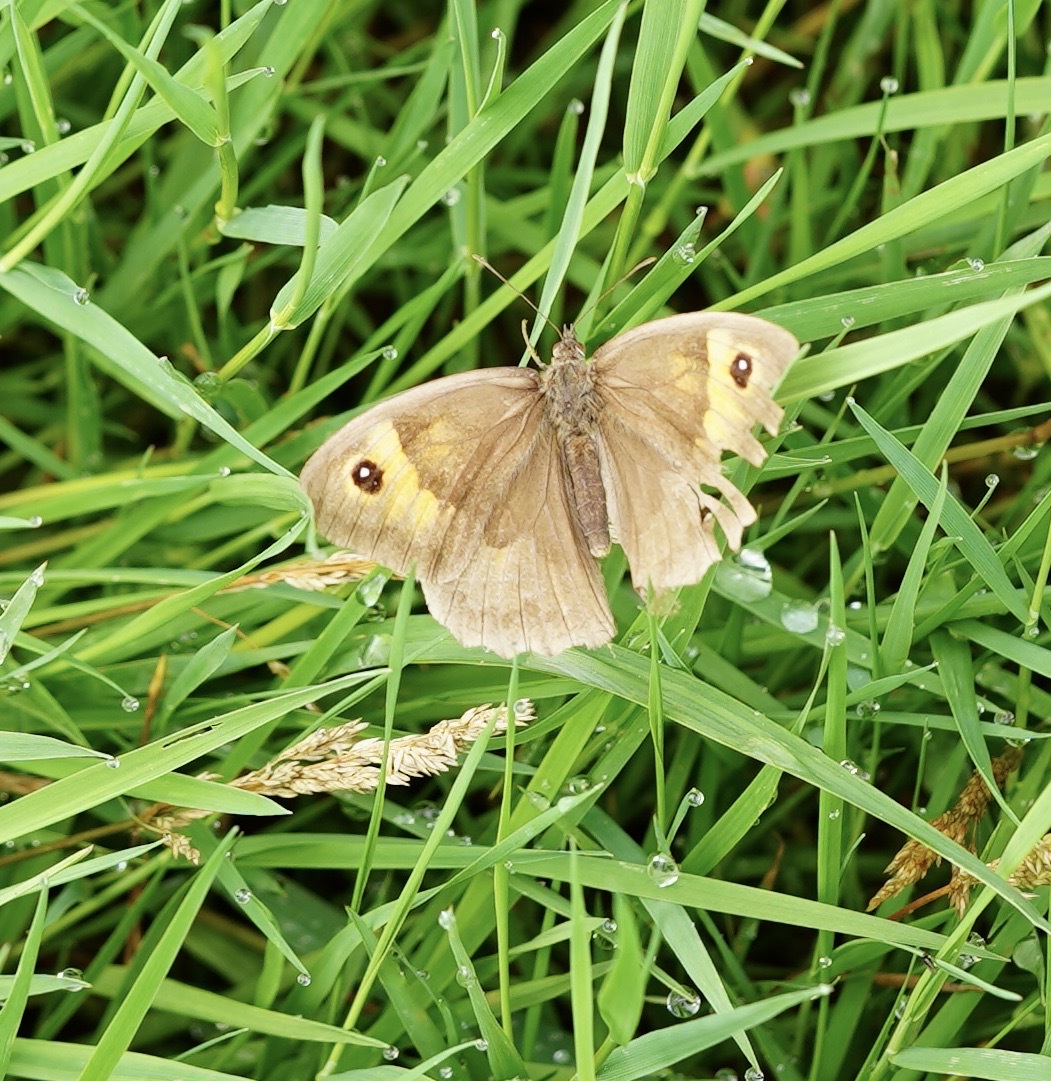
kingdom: Animalia
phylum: Arthropoda
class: Insecta
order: Lepidoptera
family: Nymphalidae
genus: Maniola
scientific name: Maniola jurtina
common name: Meadow brown
